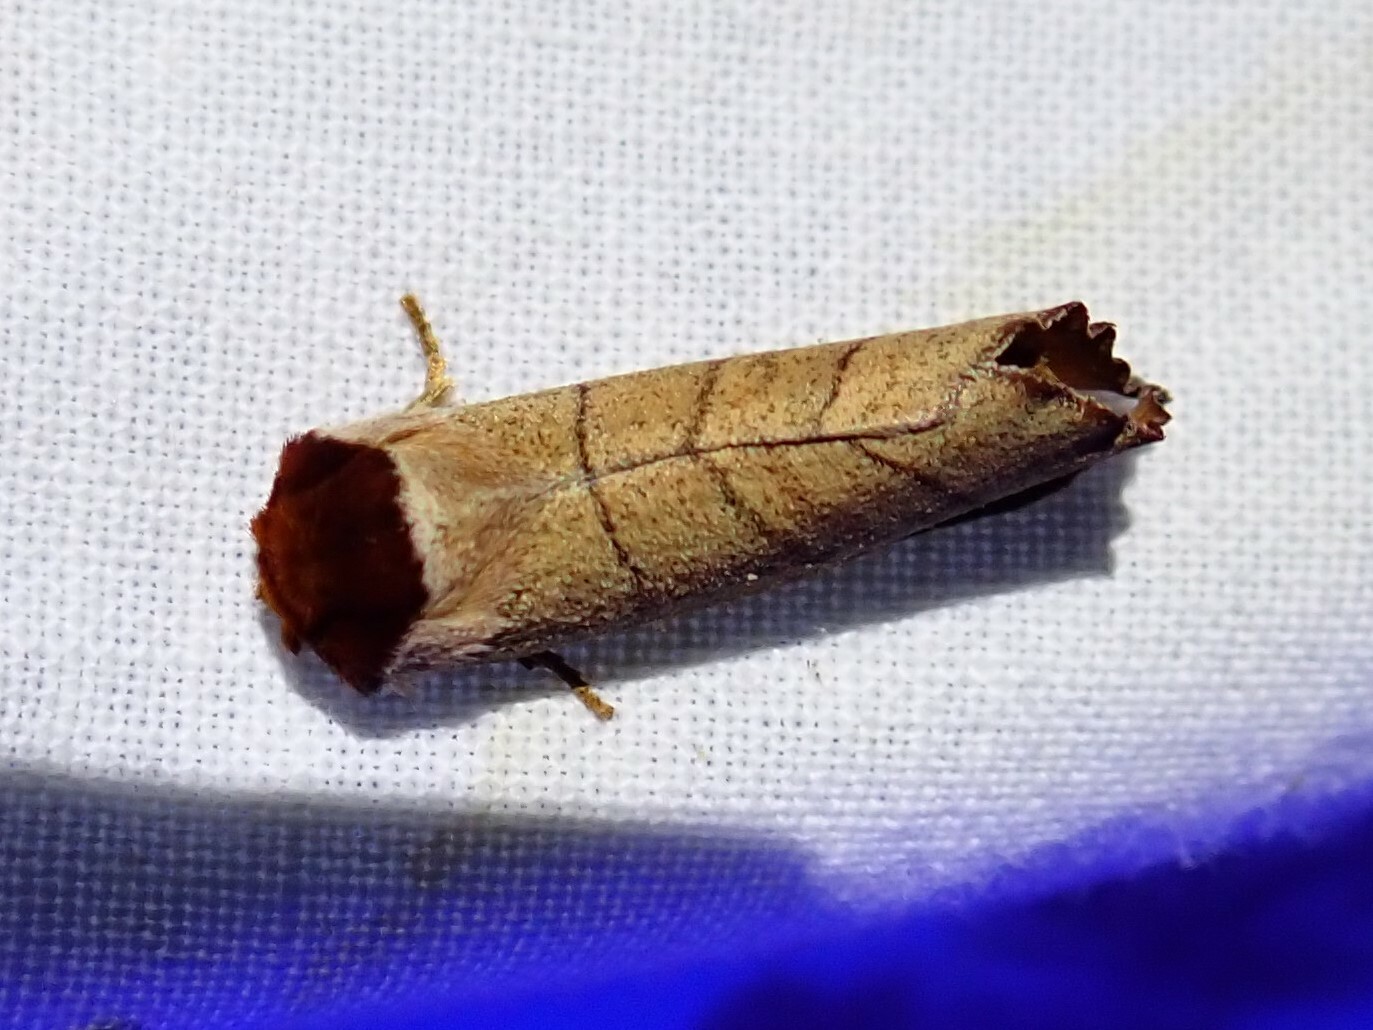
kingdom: Animalia
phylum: Arthropoda
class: Insecta
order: Lepidoptera
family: Notodontidae
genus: Datana
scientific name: Datana ministra
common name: Yellow-necked caterpillar moth
